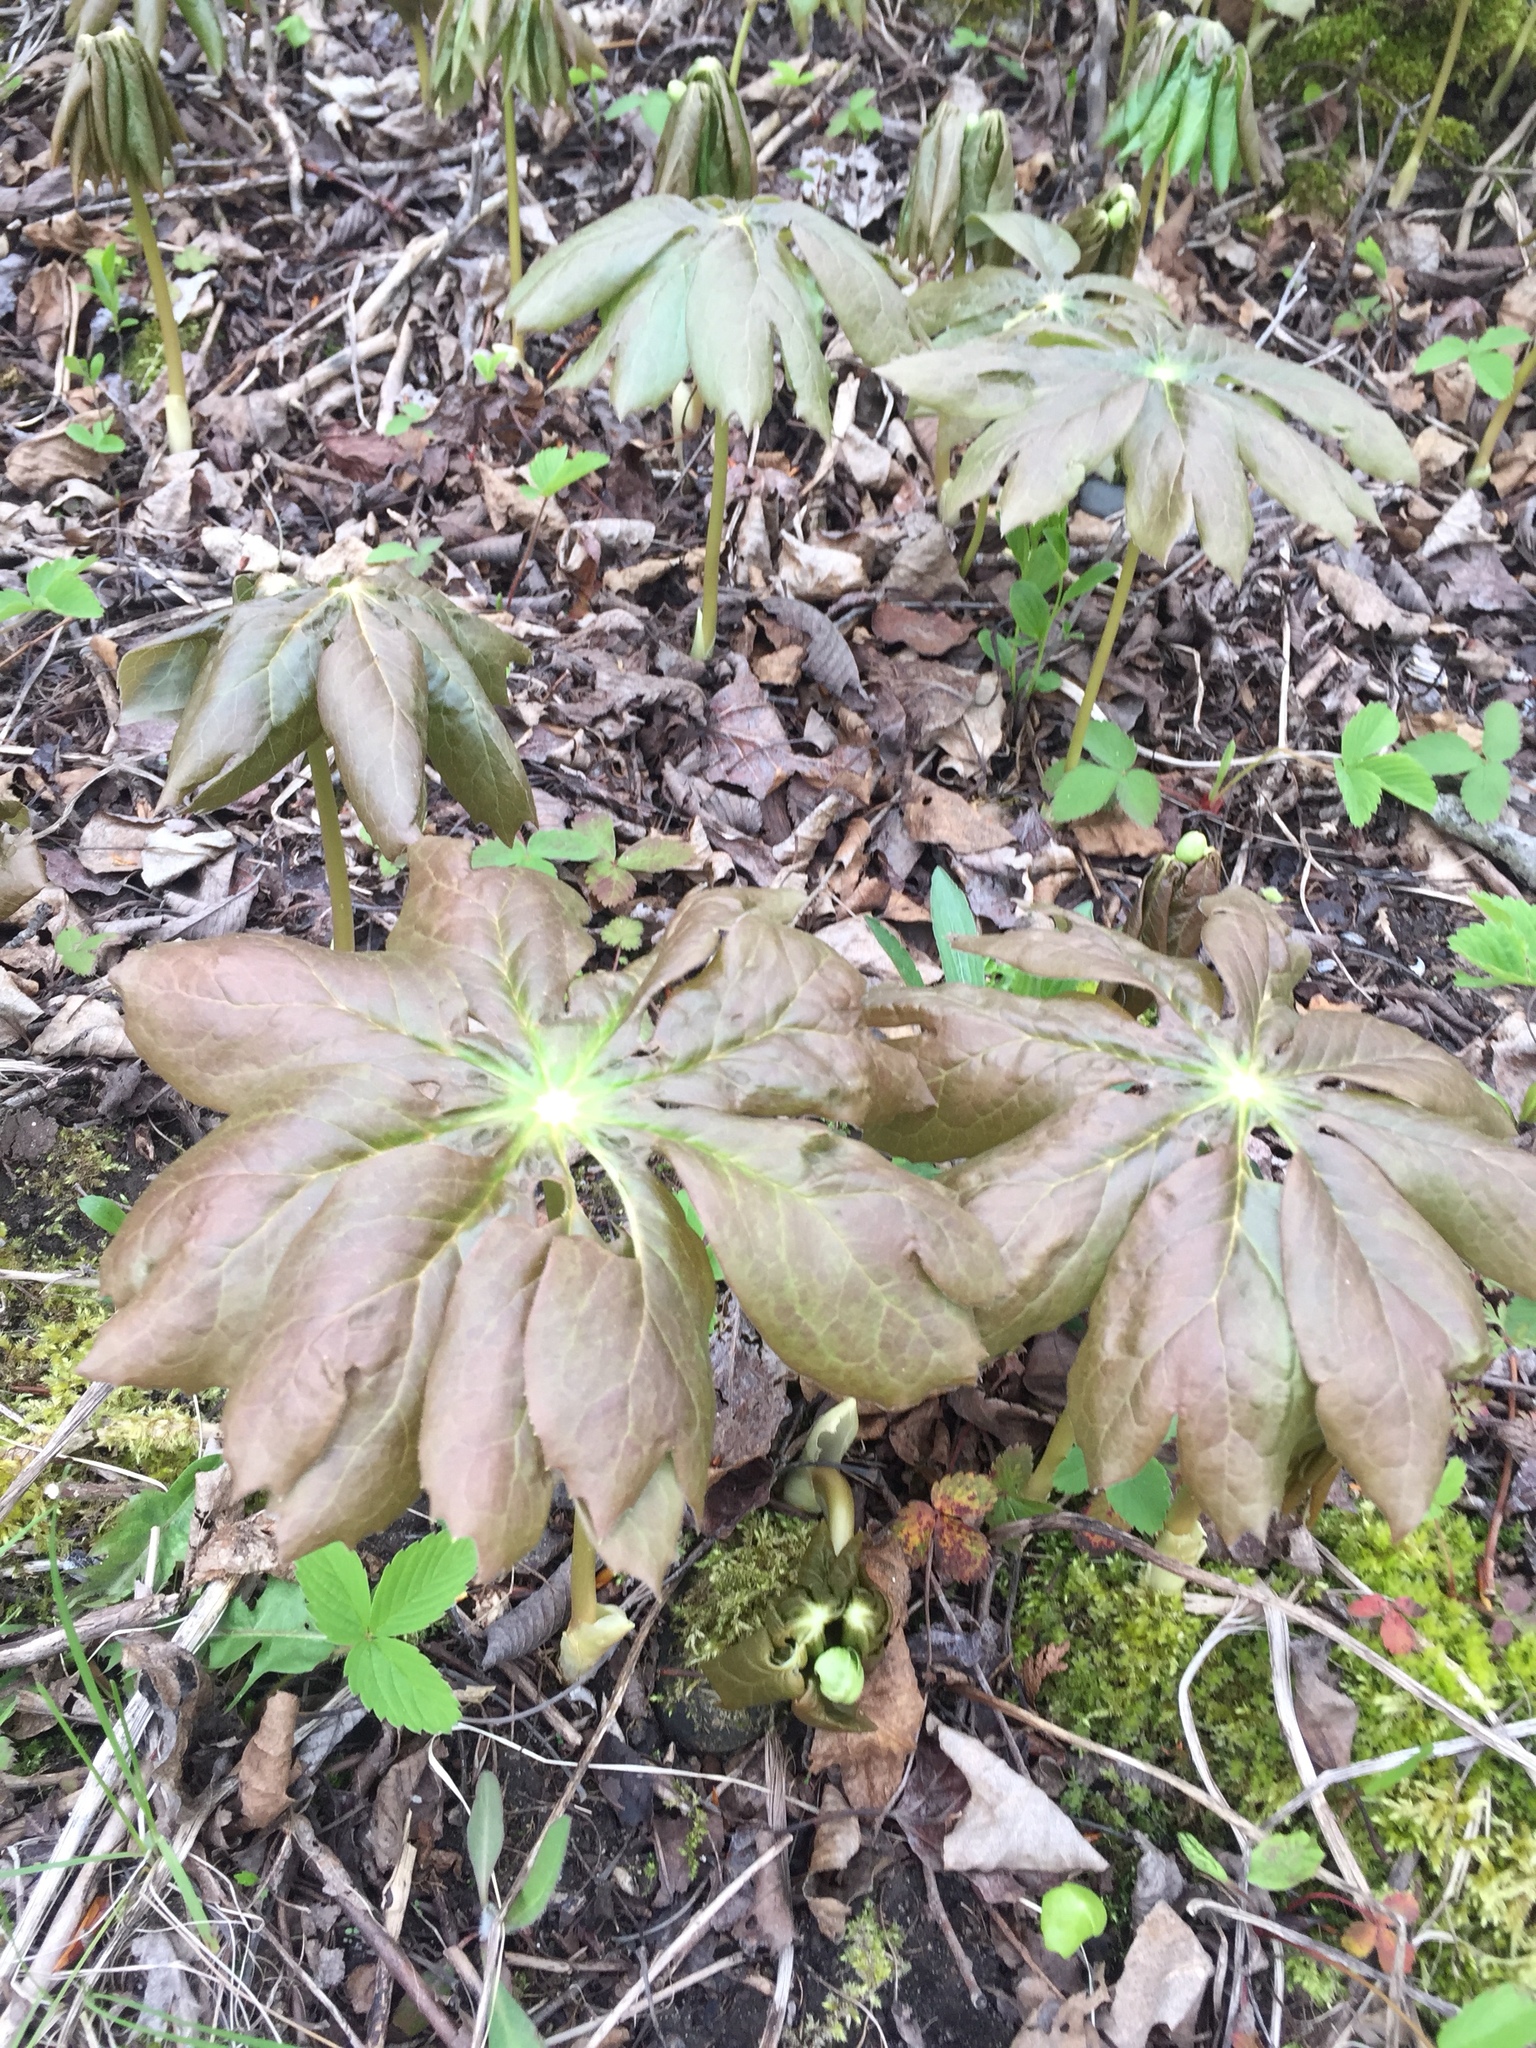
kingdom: Plantae
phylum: Tracheophyta
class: Magnoliopsida
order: Ranunculales
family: Berberidaceae
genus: Podophyllum
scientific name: Podophyllum peltatum
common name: Wild mandrake
